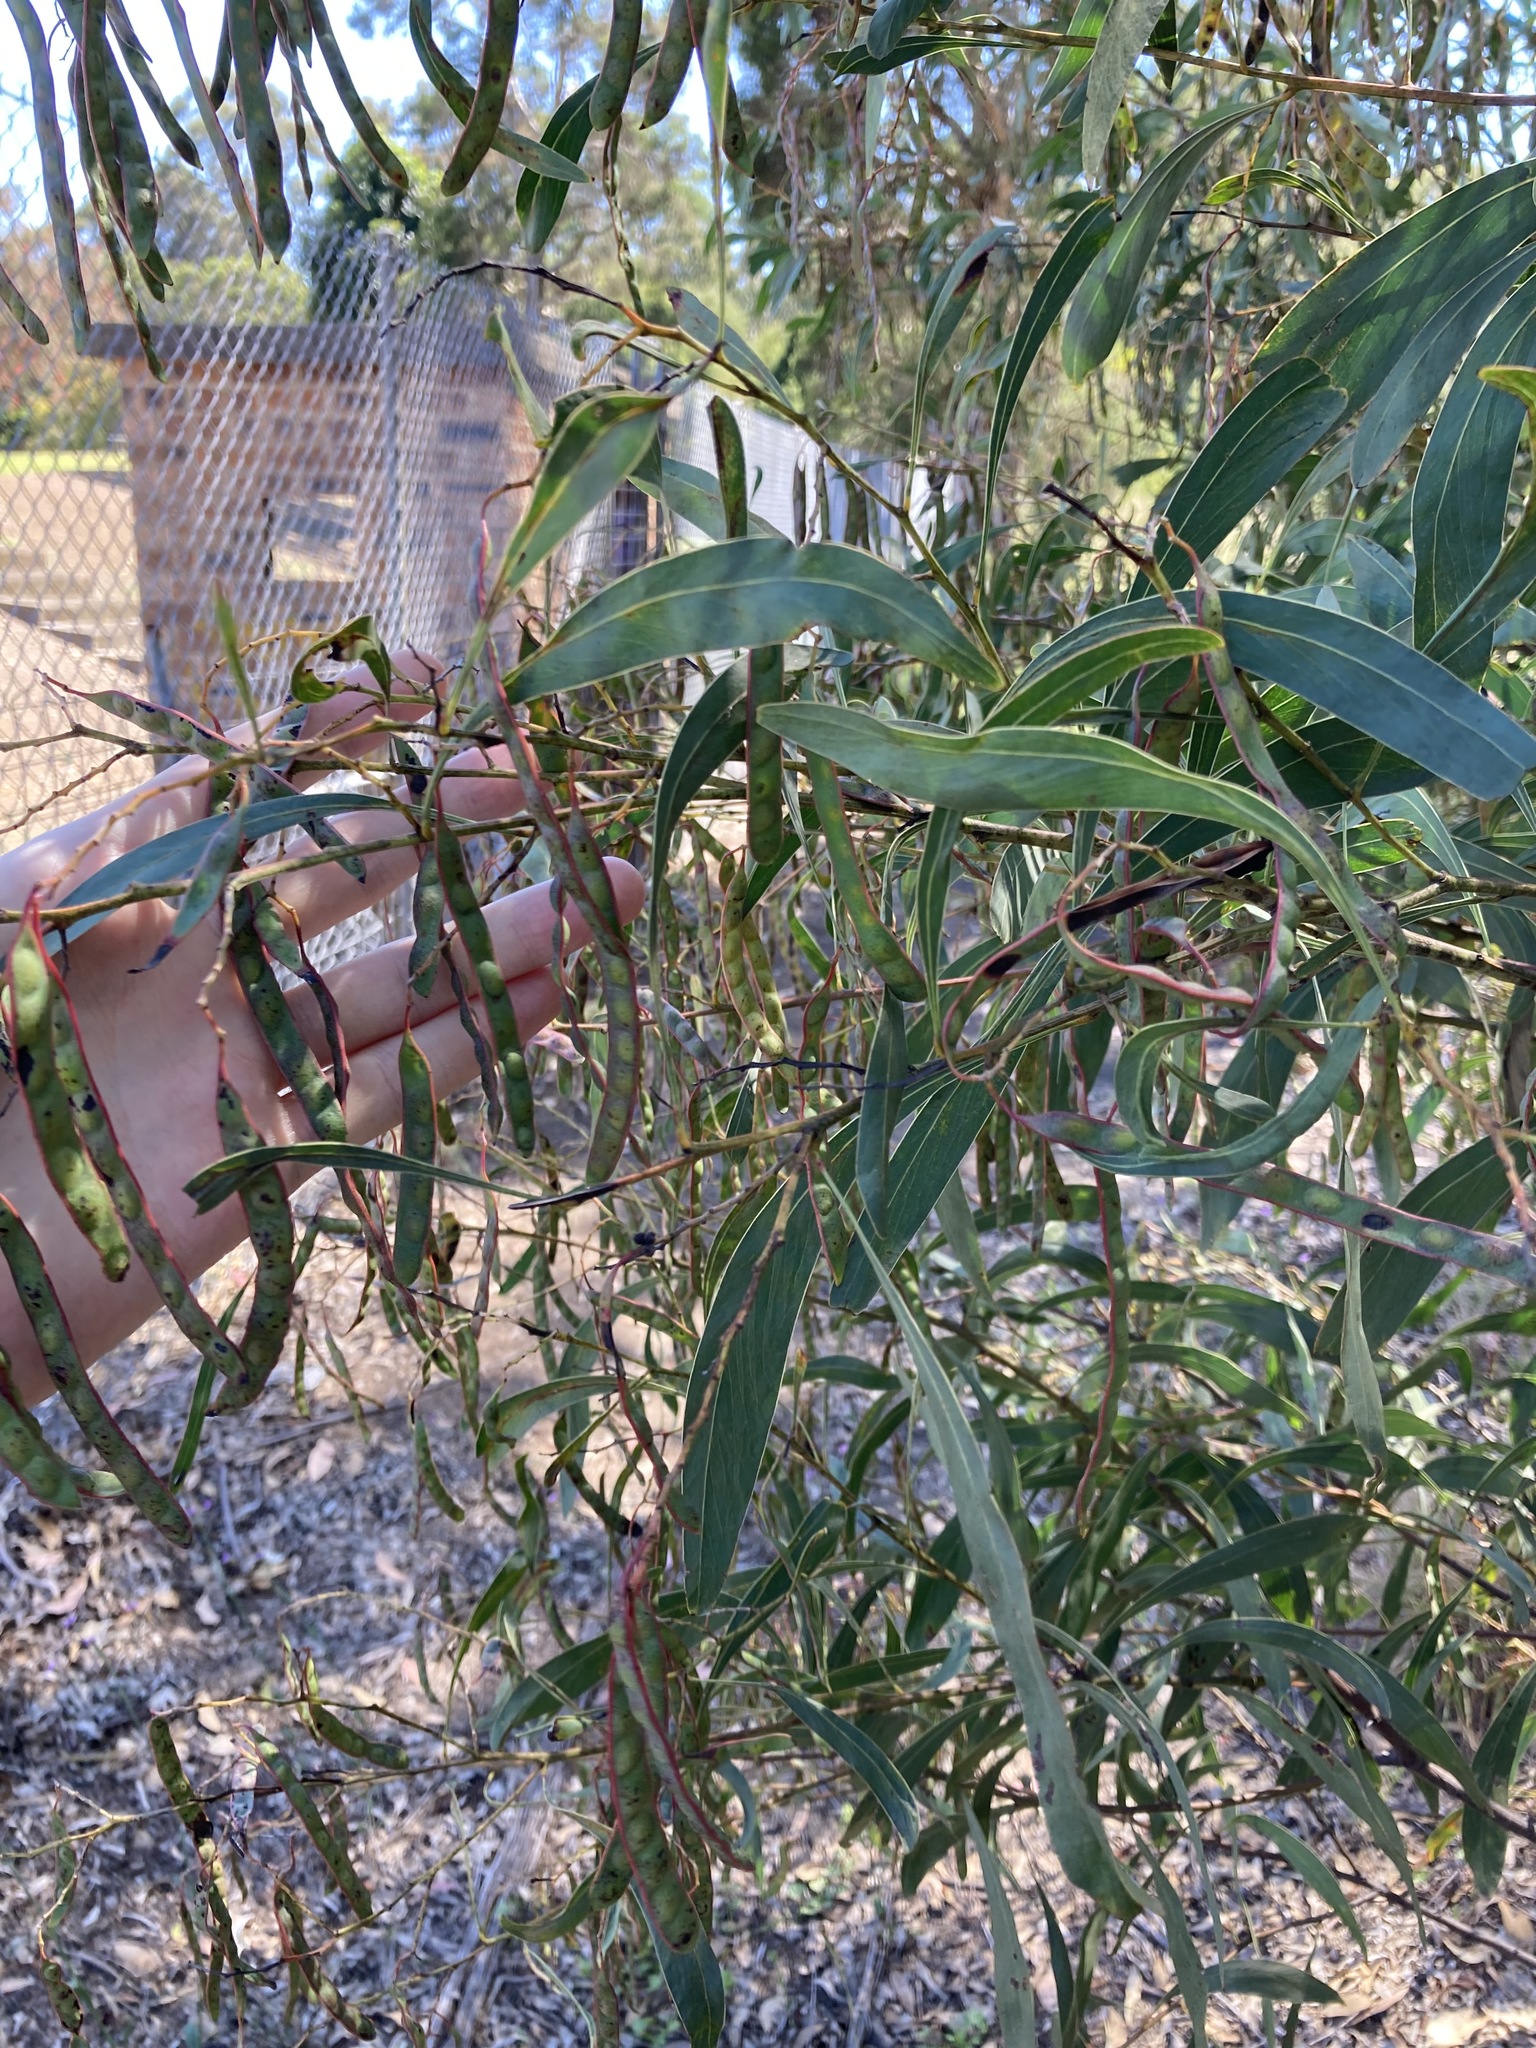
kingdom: Plantae
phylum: Tracheophyta
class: Magnoliopsida
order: Fabales
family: Fabaceae
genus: Acacia
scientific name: Acacia falcata
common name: Burra acacia
